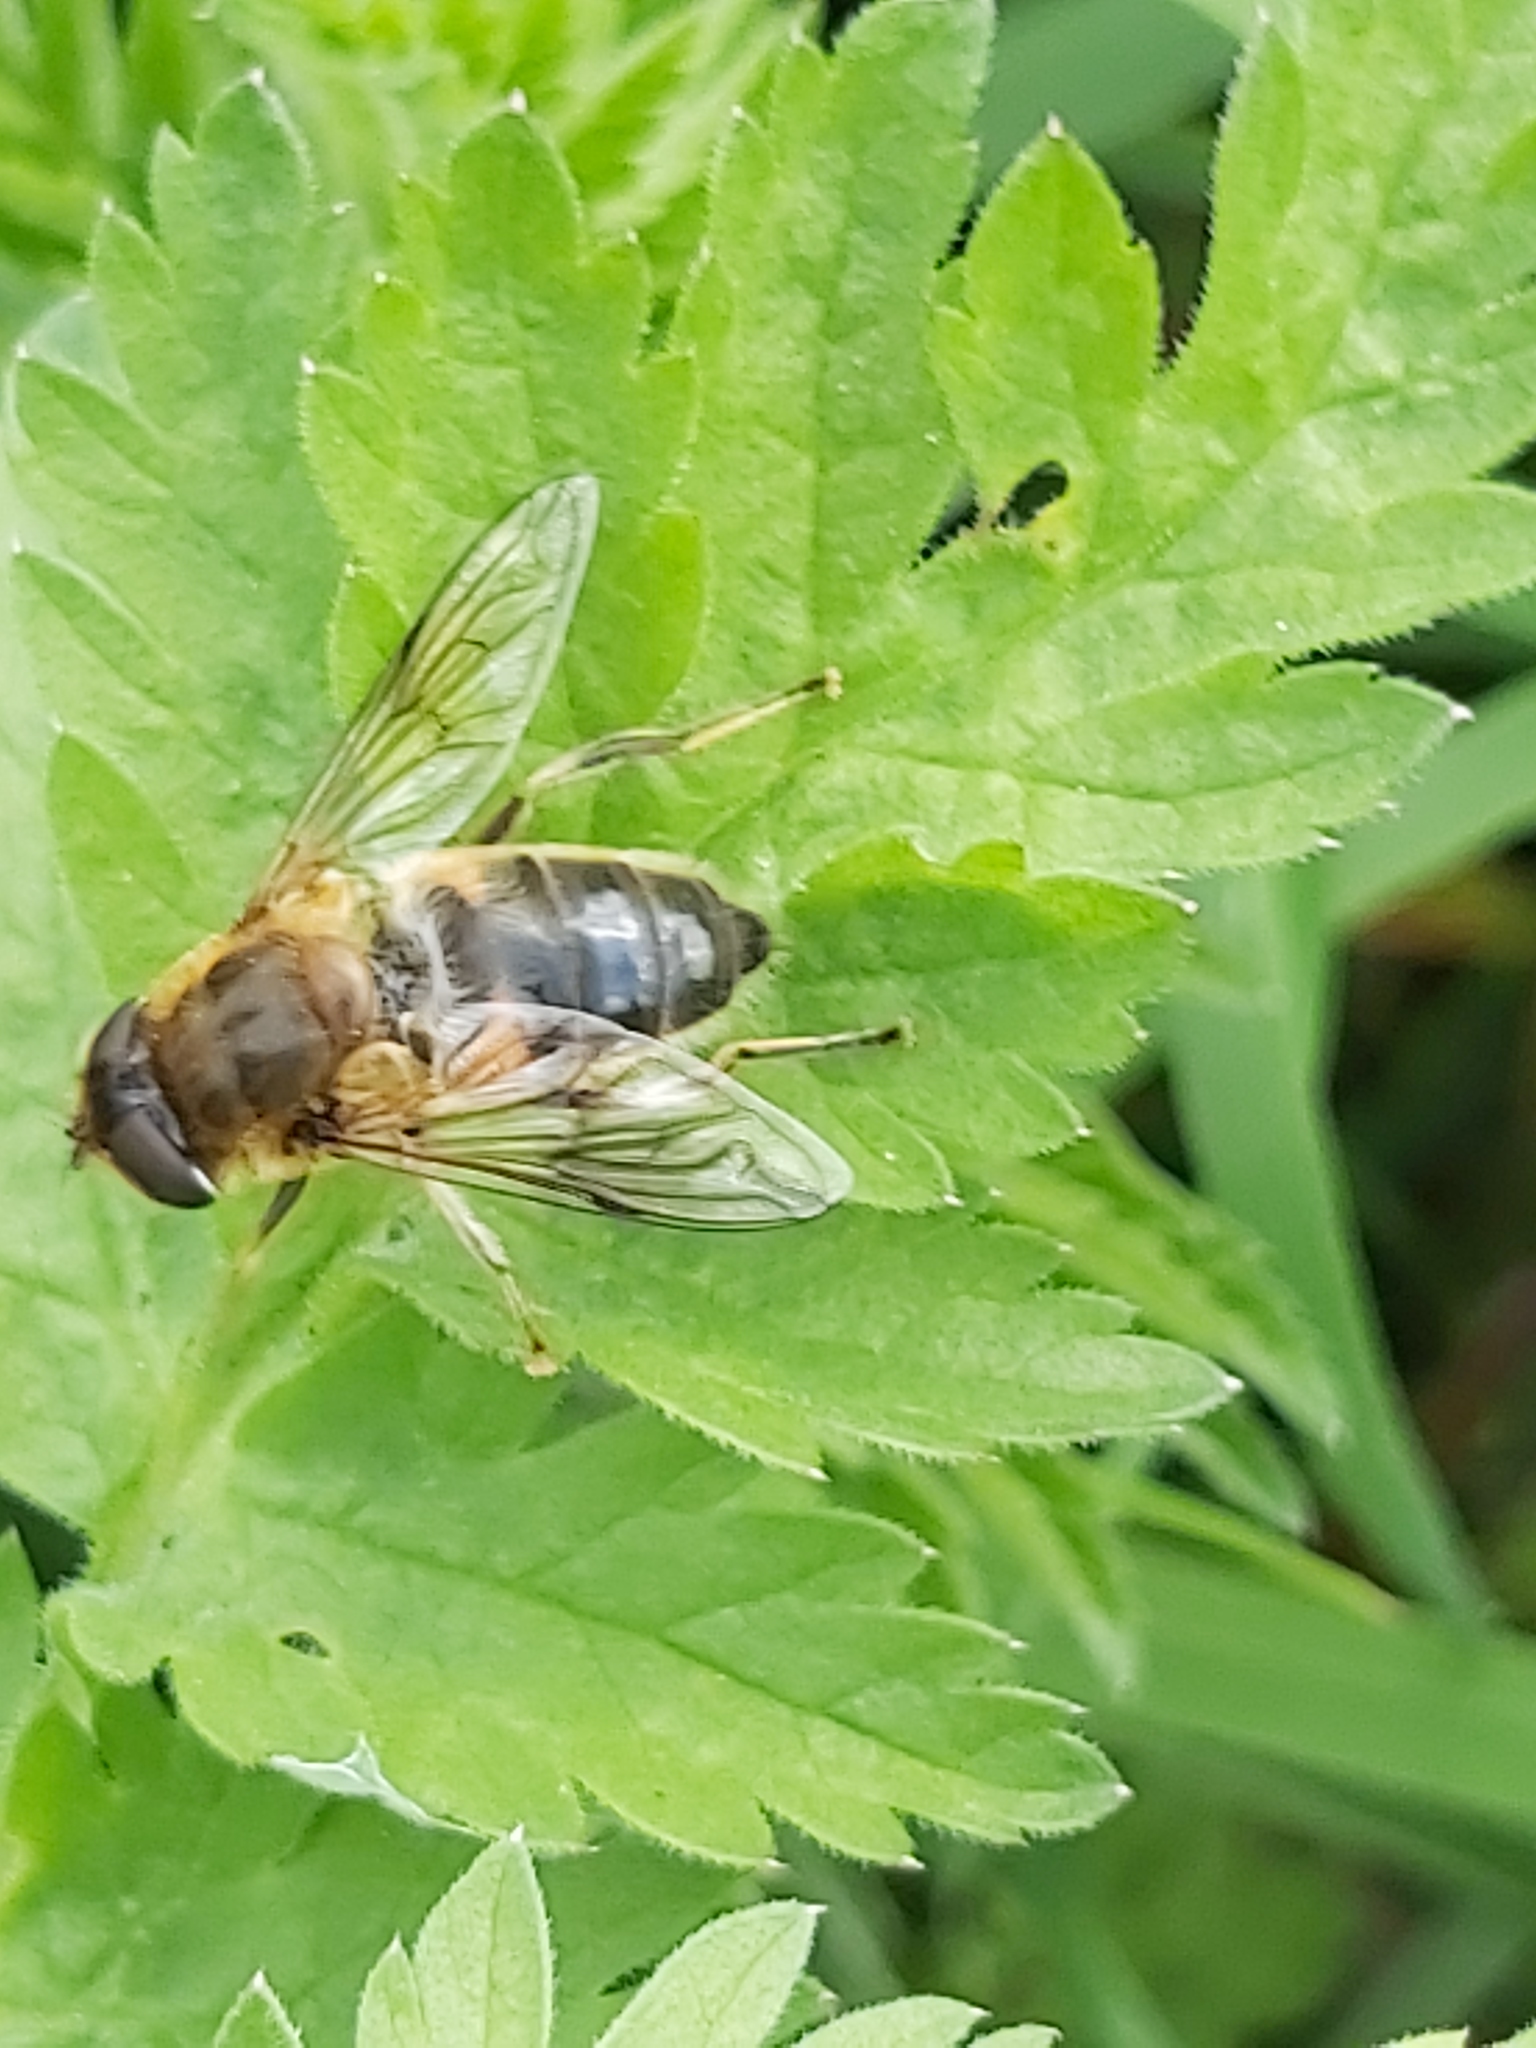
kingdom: Animalia
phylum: Arthropoda
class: Insecta
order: Diptera
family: Syrphidae
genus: Eristalis
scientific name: Eristalis pertinax
